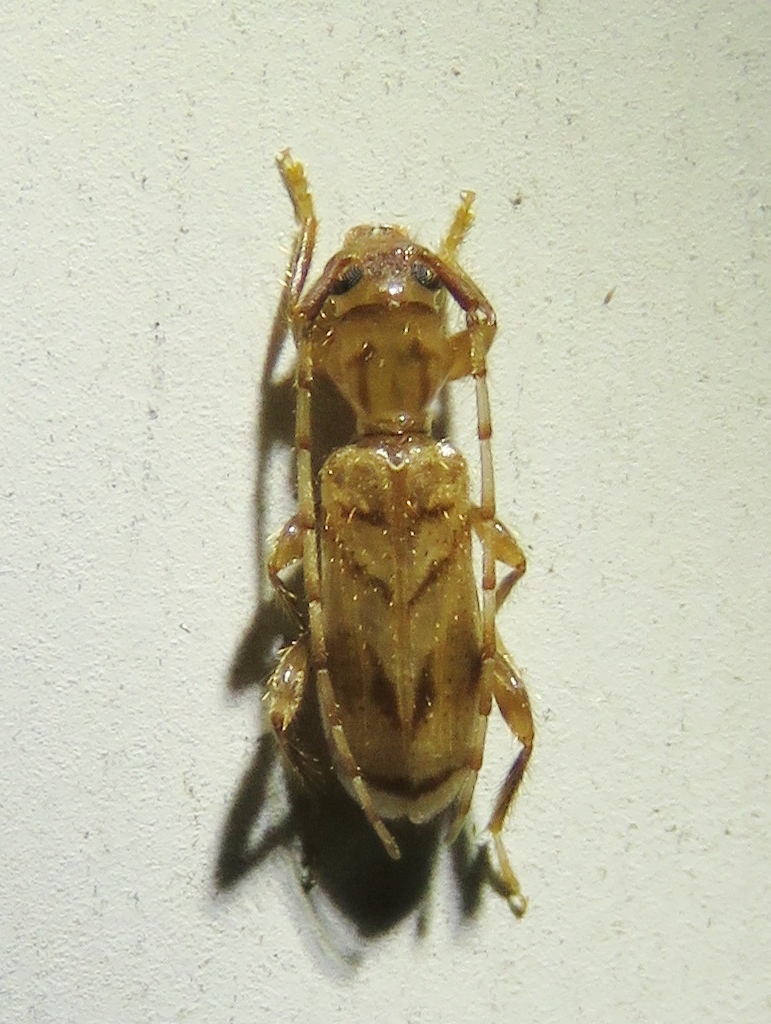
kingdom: Animalia
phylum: Arthropoda
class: Insecta
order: Coleoptera
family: Cerambycidae
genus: Obrium
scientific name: Obrium maculatum
